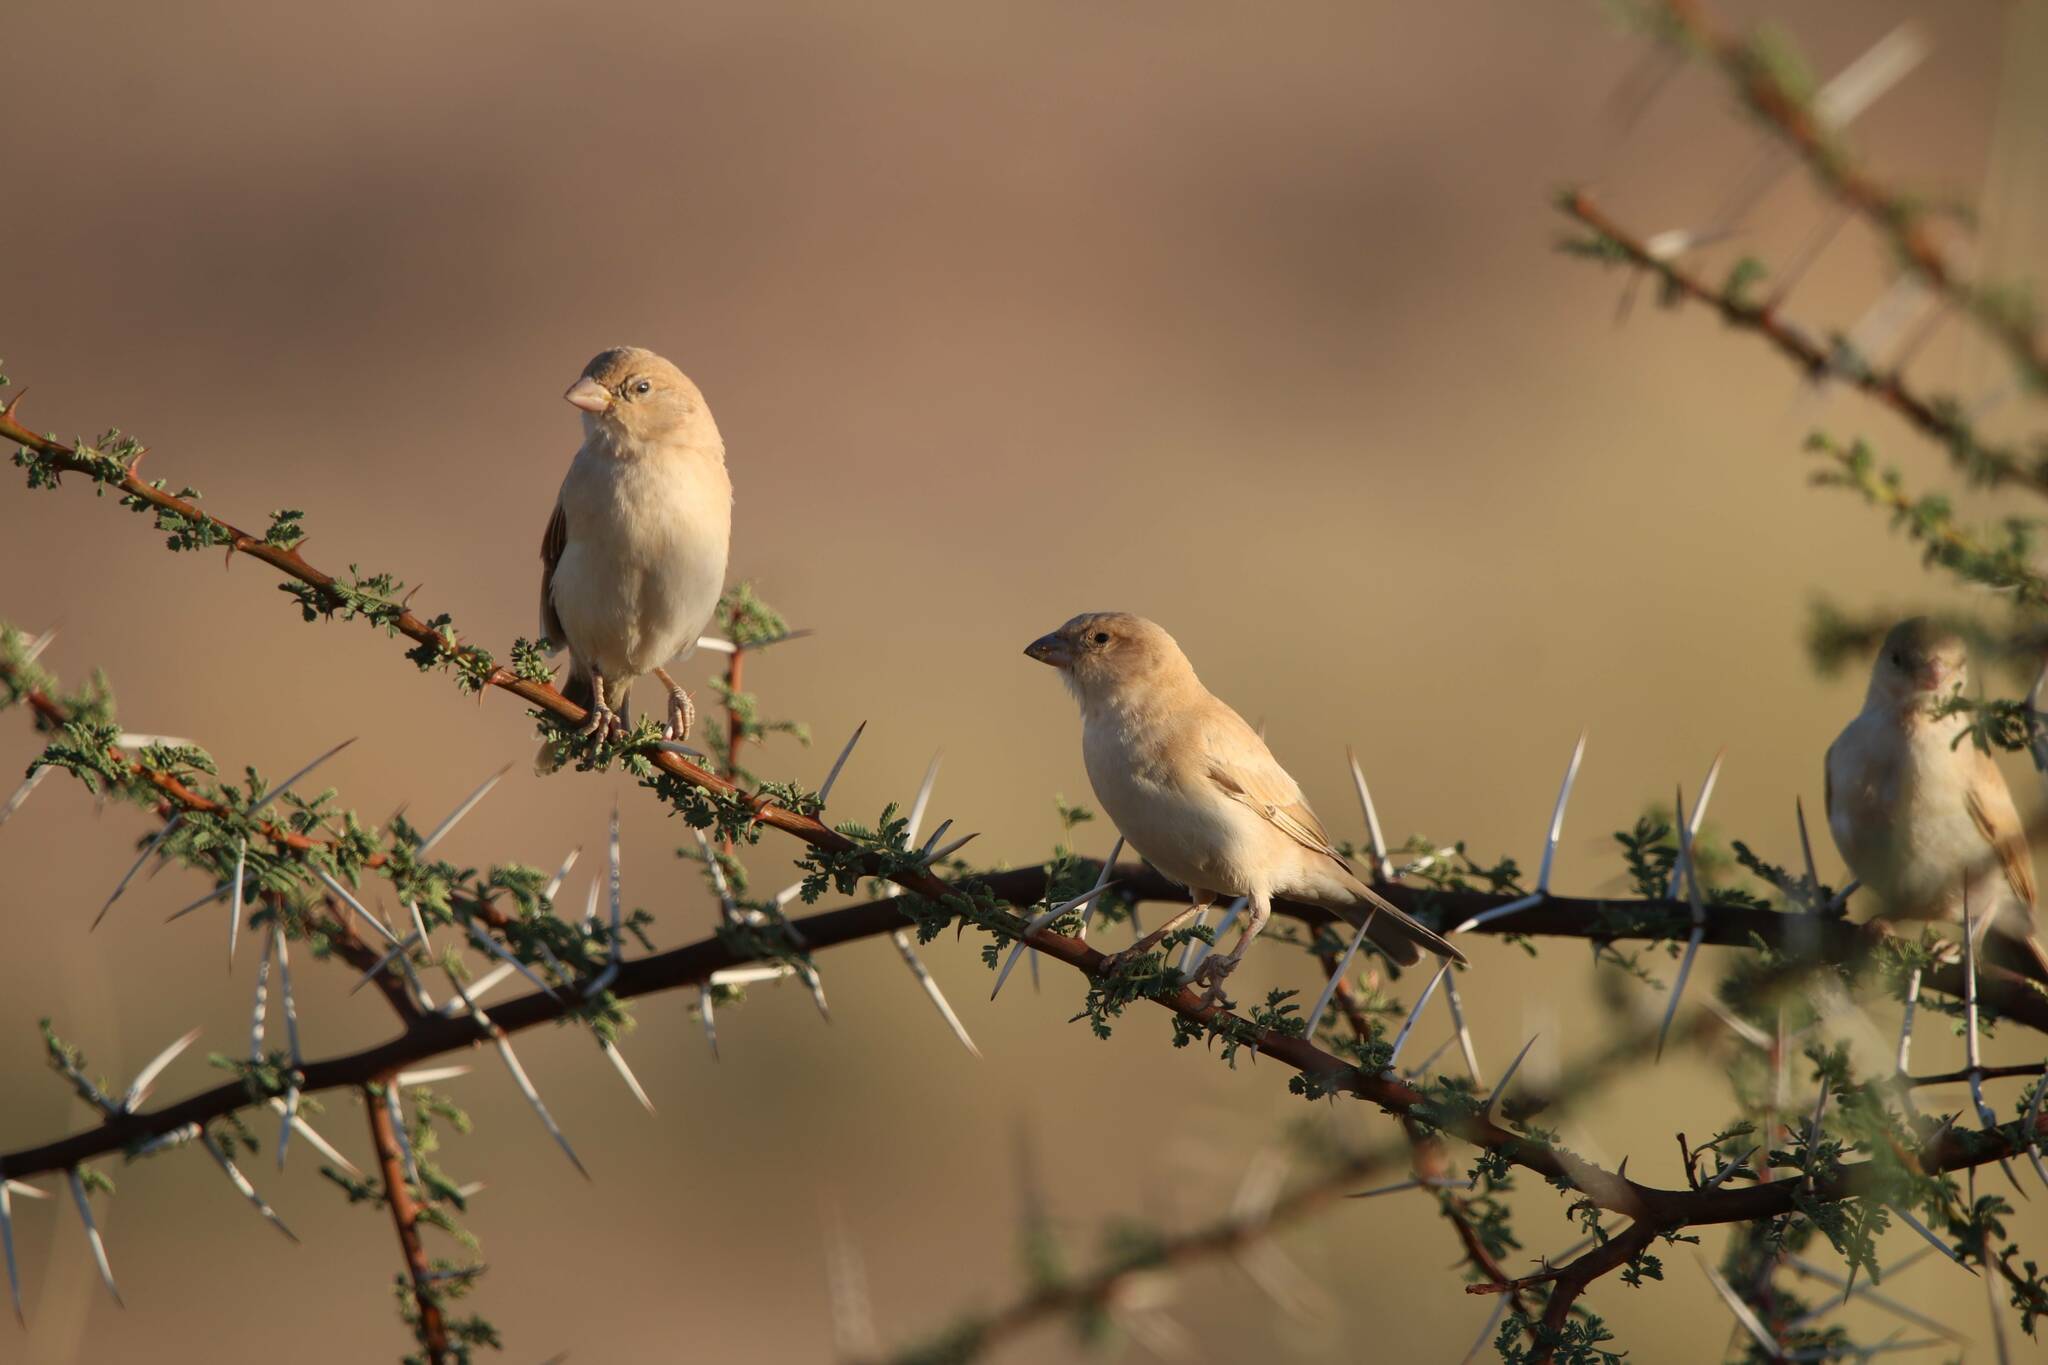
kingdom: Animalia
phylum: Chordata
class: Aves
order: Passeriformes
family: Passeridae
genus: Passer
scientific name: Passer simplex
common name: Desert sparrow
